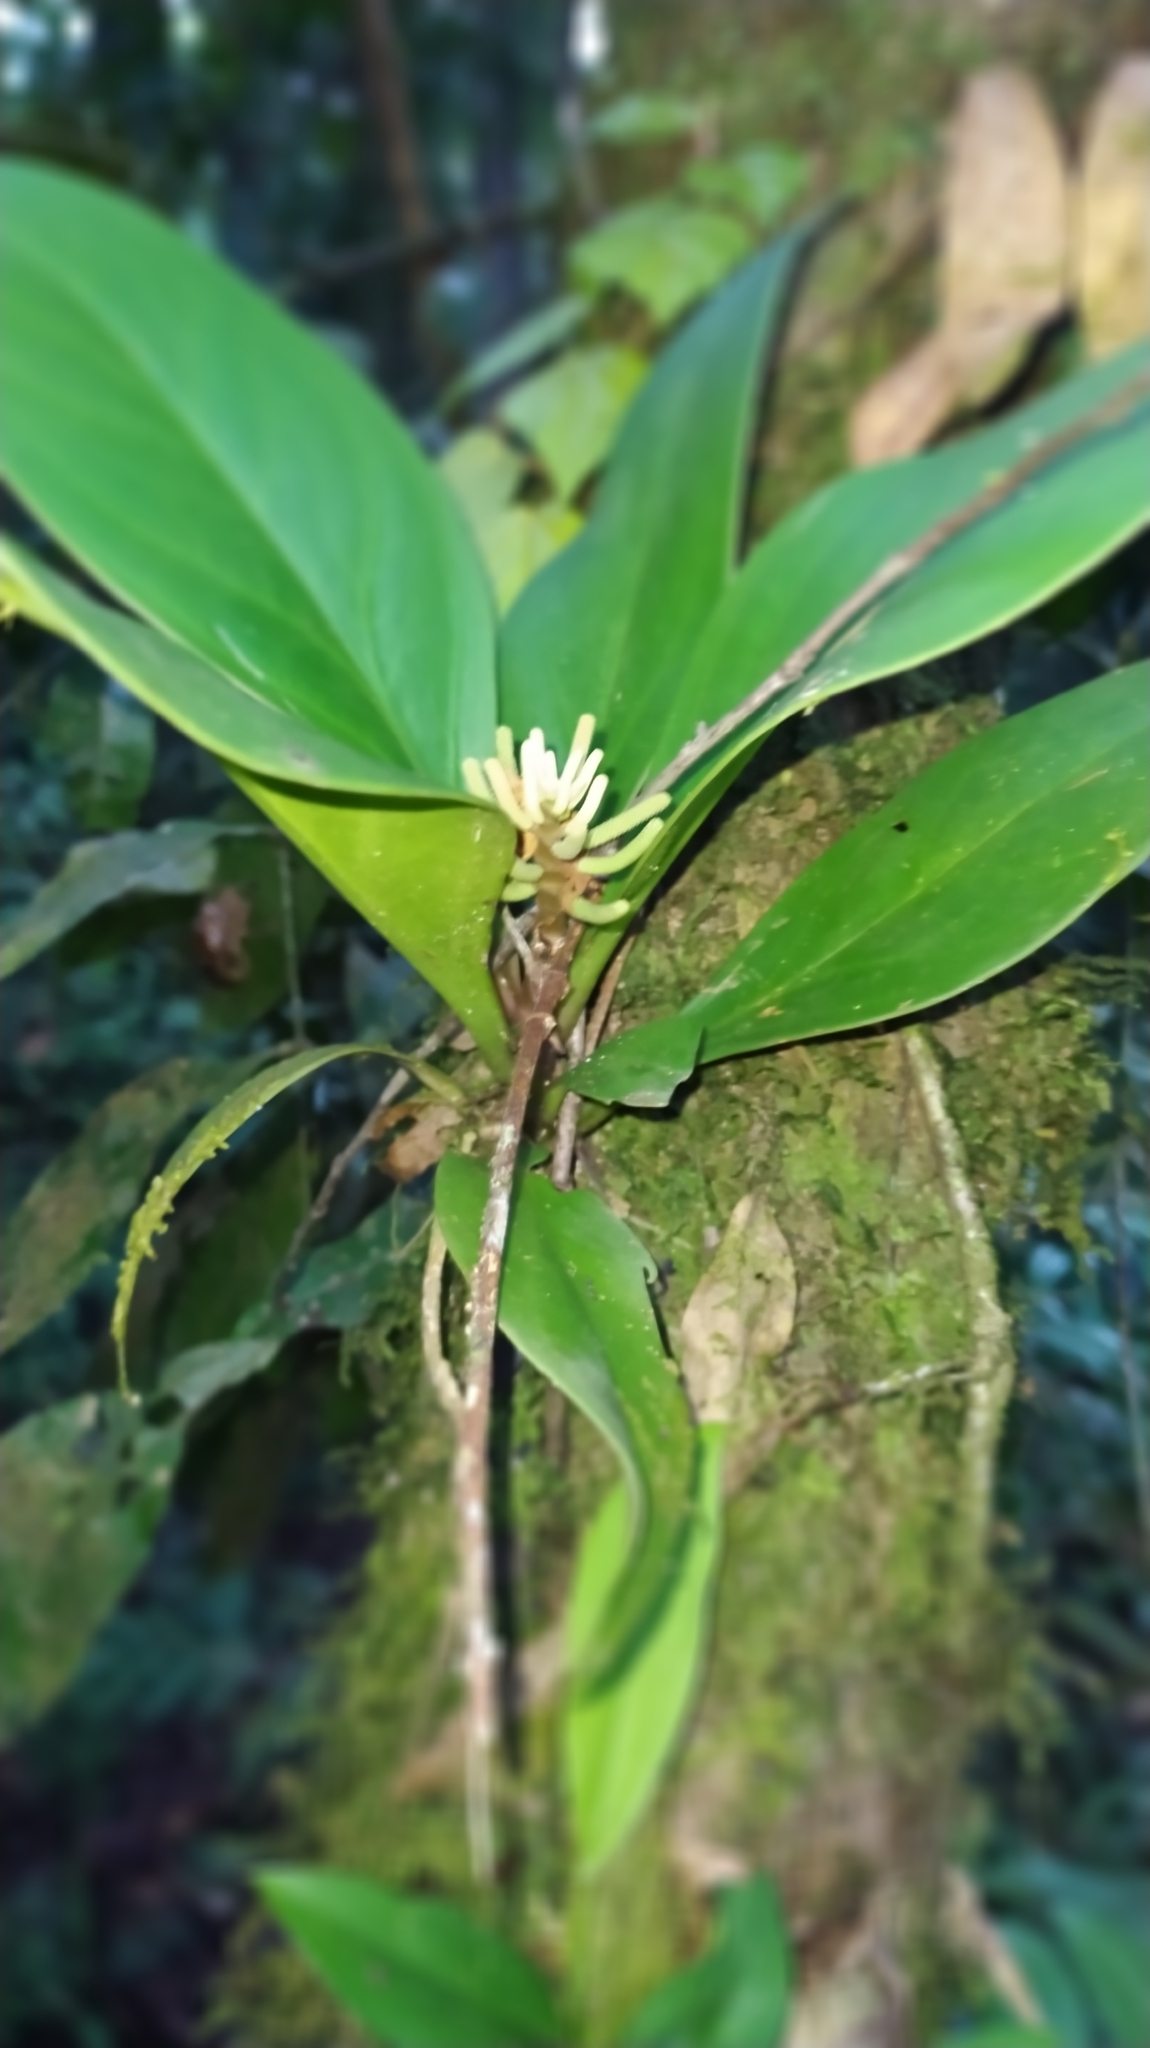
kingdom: Plantae
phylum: Tracheophyta
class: Magnoliopsida
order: Piperales
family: Piperaceae
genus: Peperomia
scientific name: Peperomia pernambucensis
